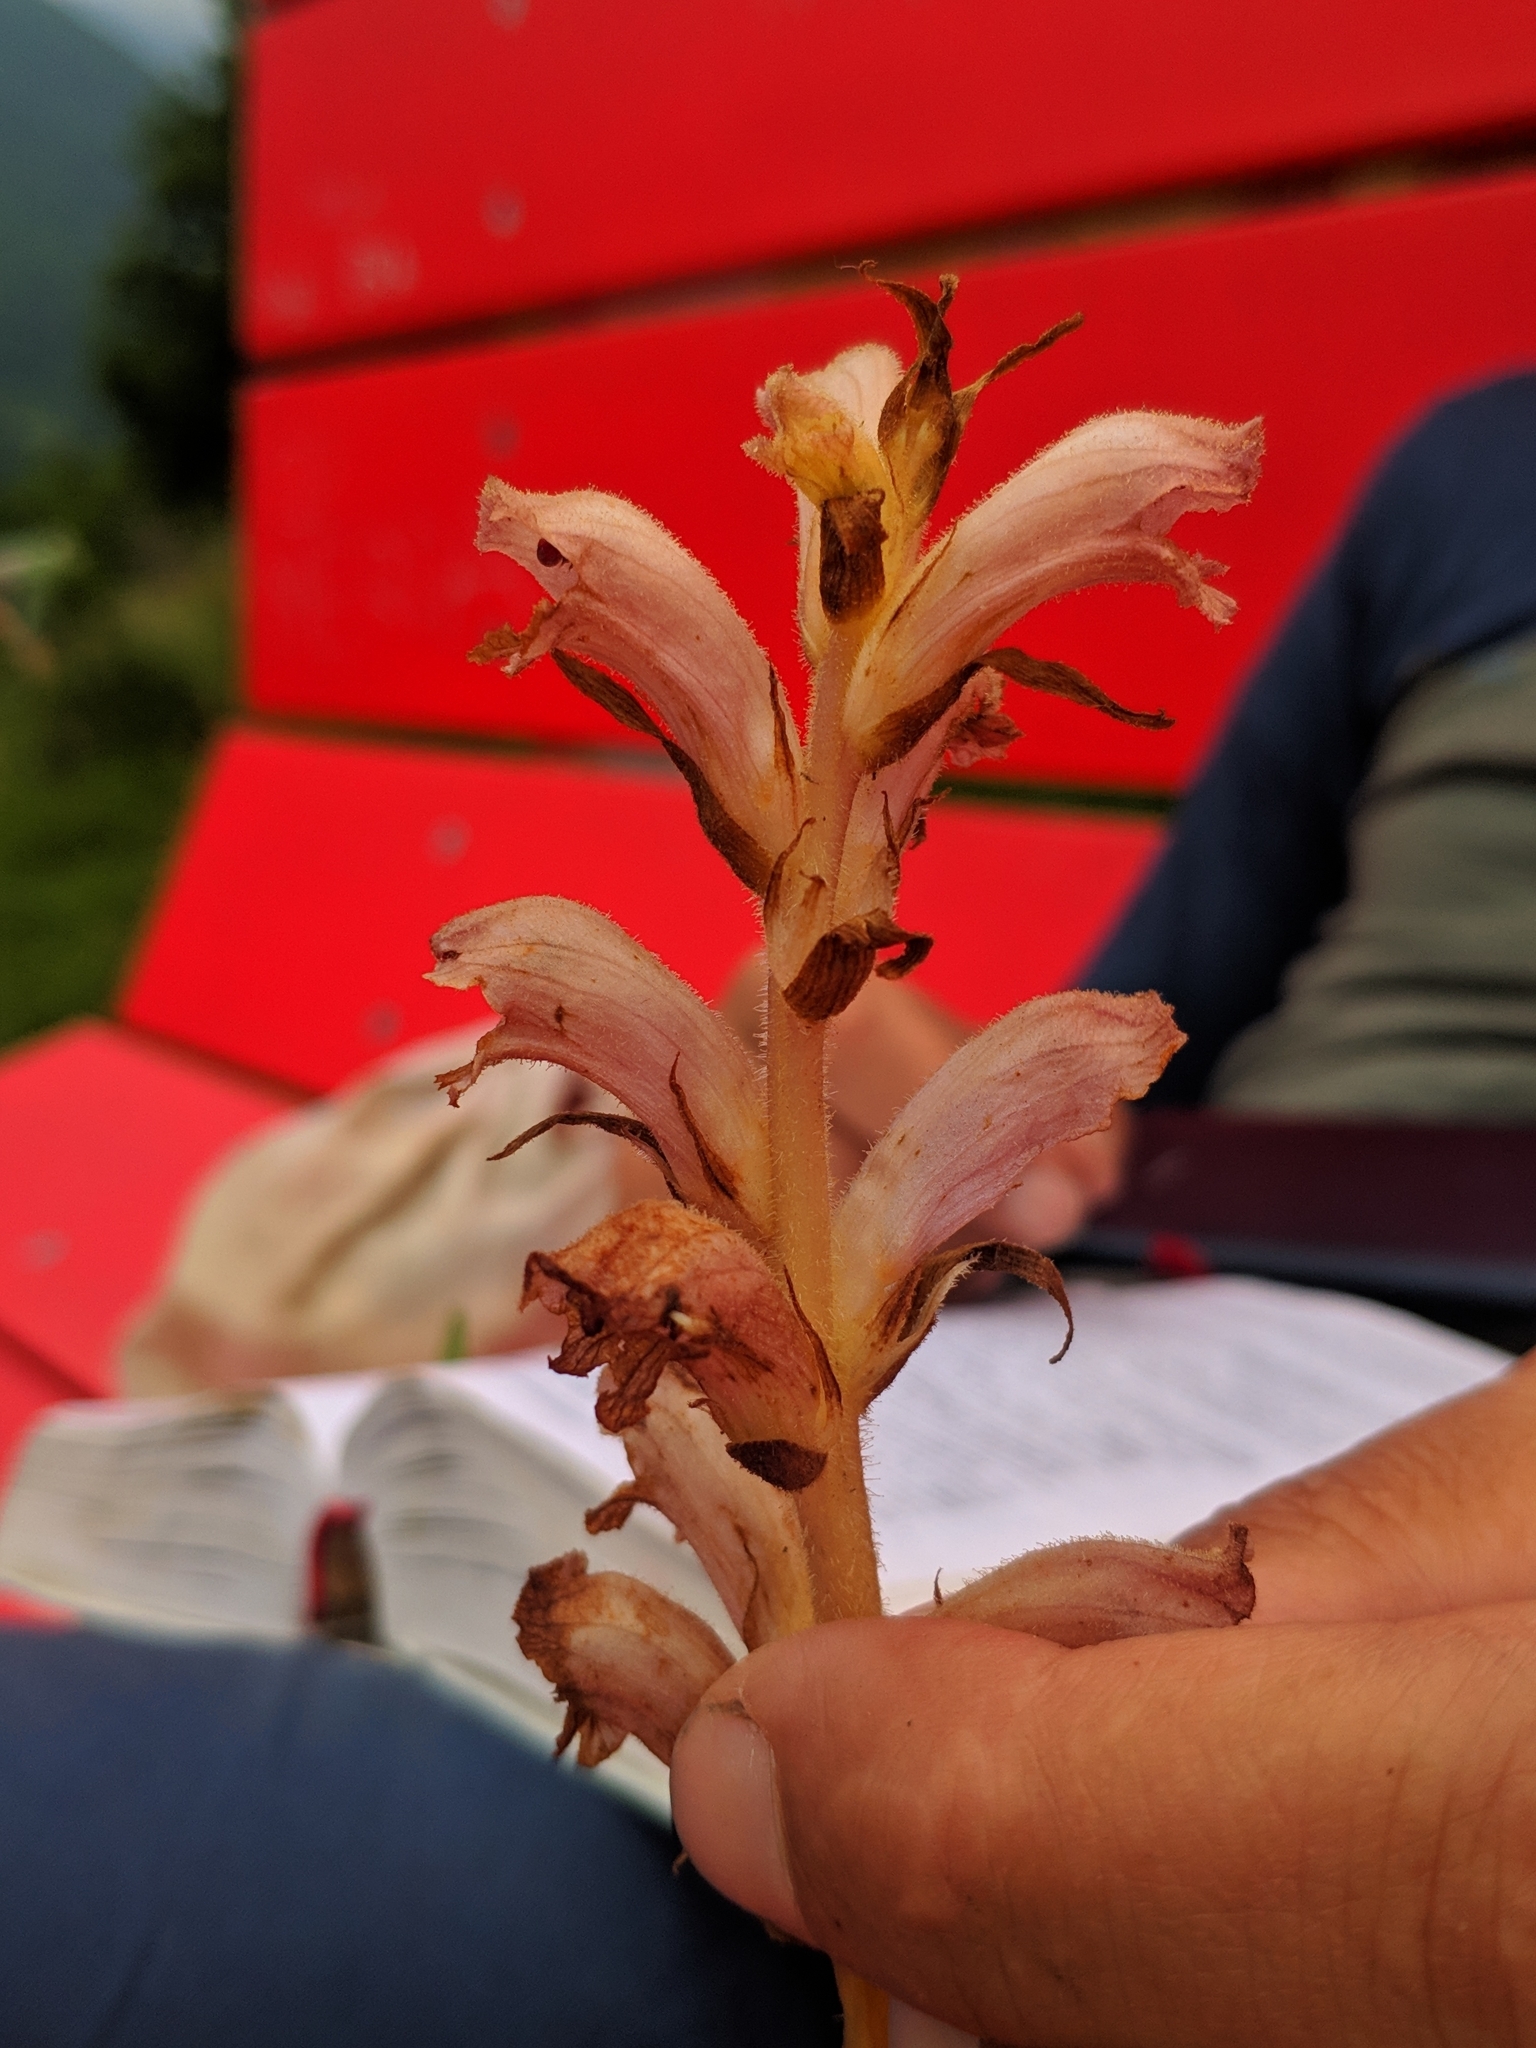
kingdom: Plantae
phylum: Tracheophyta
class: Magnoliopsida
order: Lamiales
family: Orobanchaceae
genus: Orobanche
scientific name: Orobanche caryophyllacea
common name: Bedstraw broomrape
